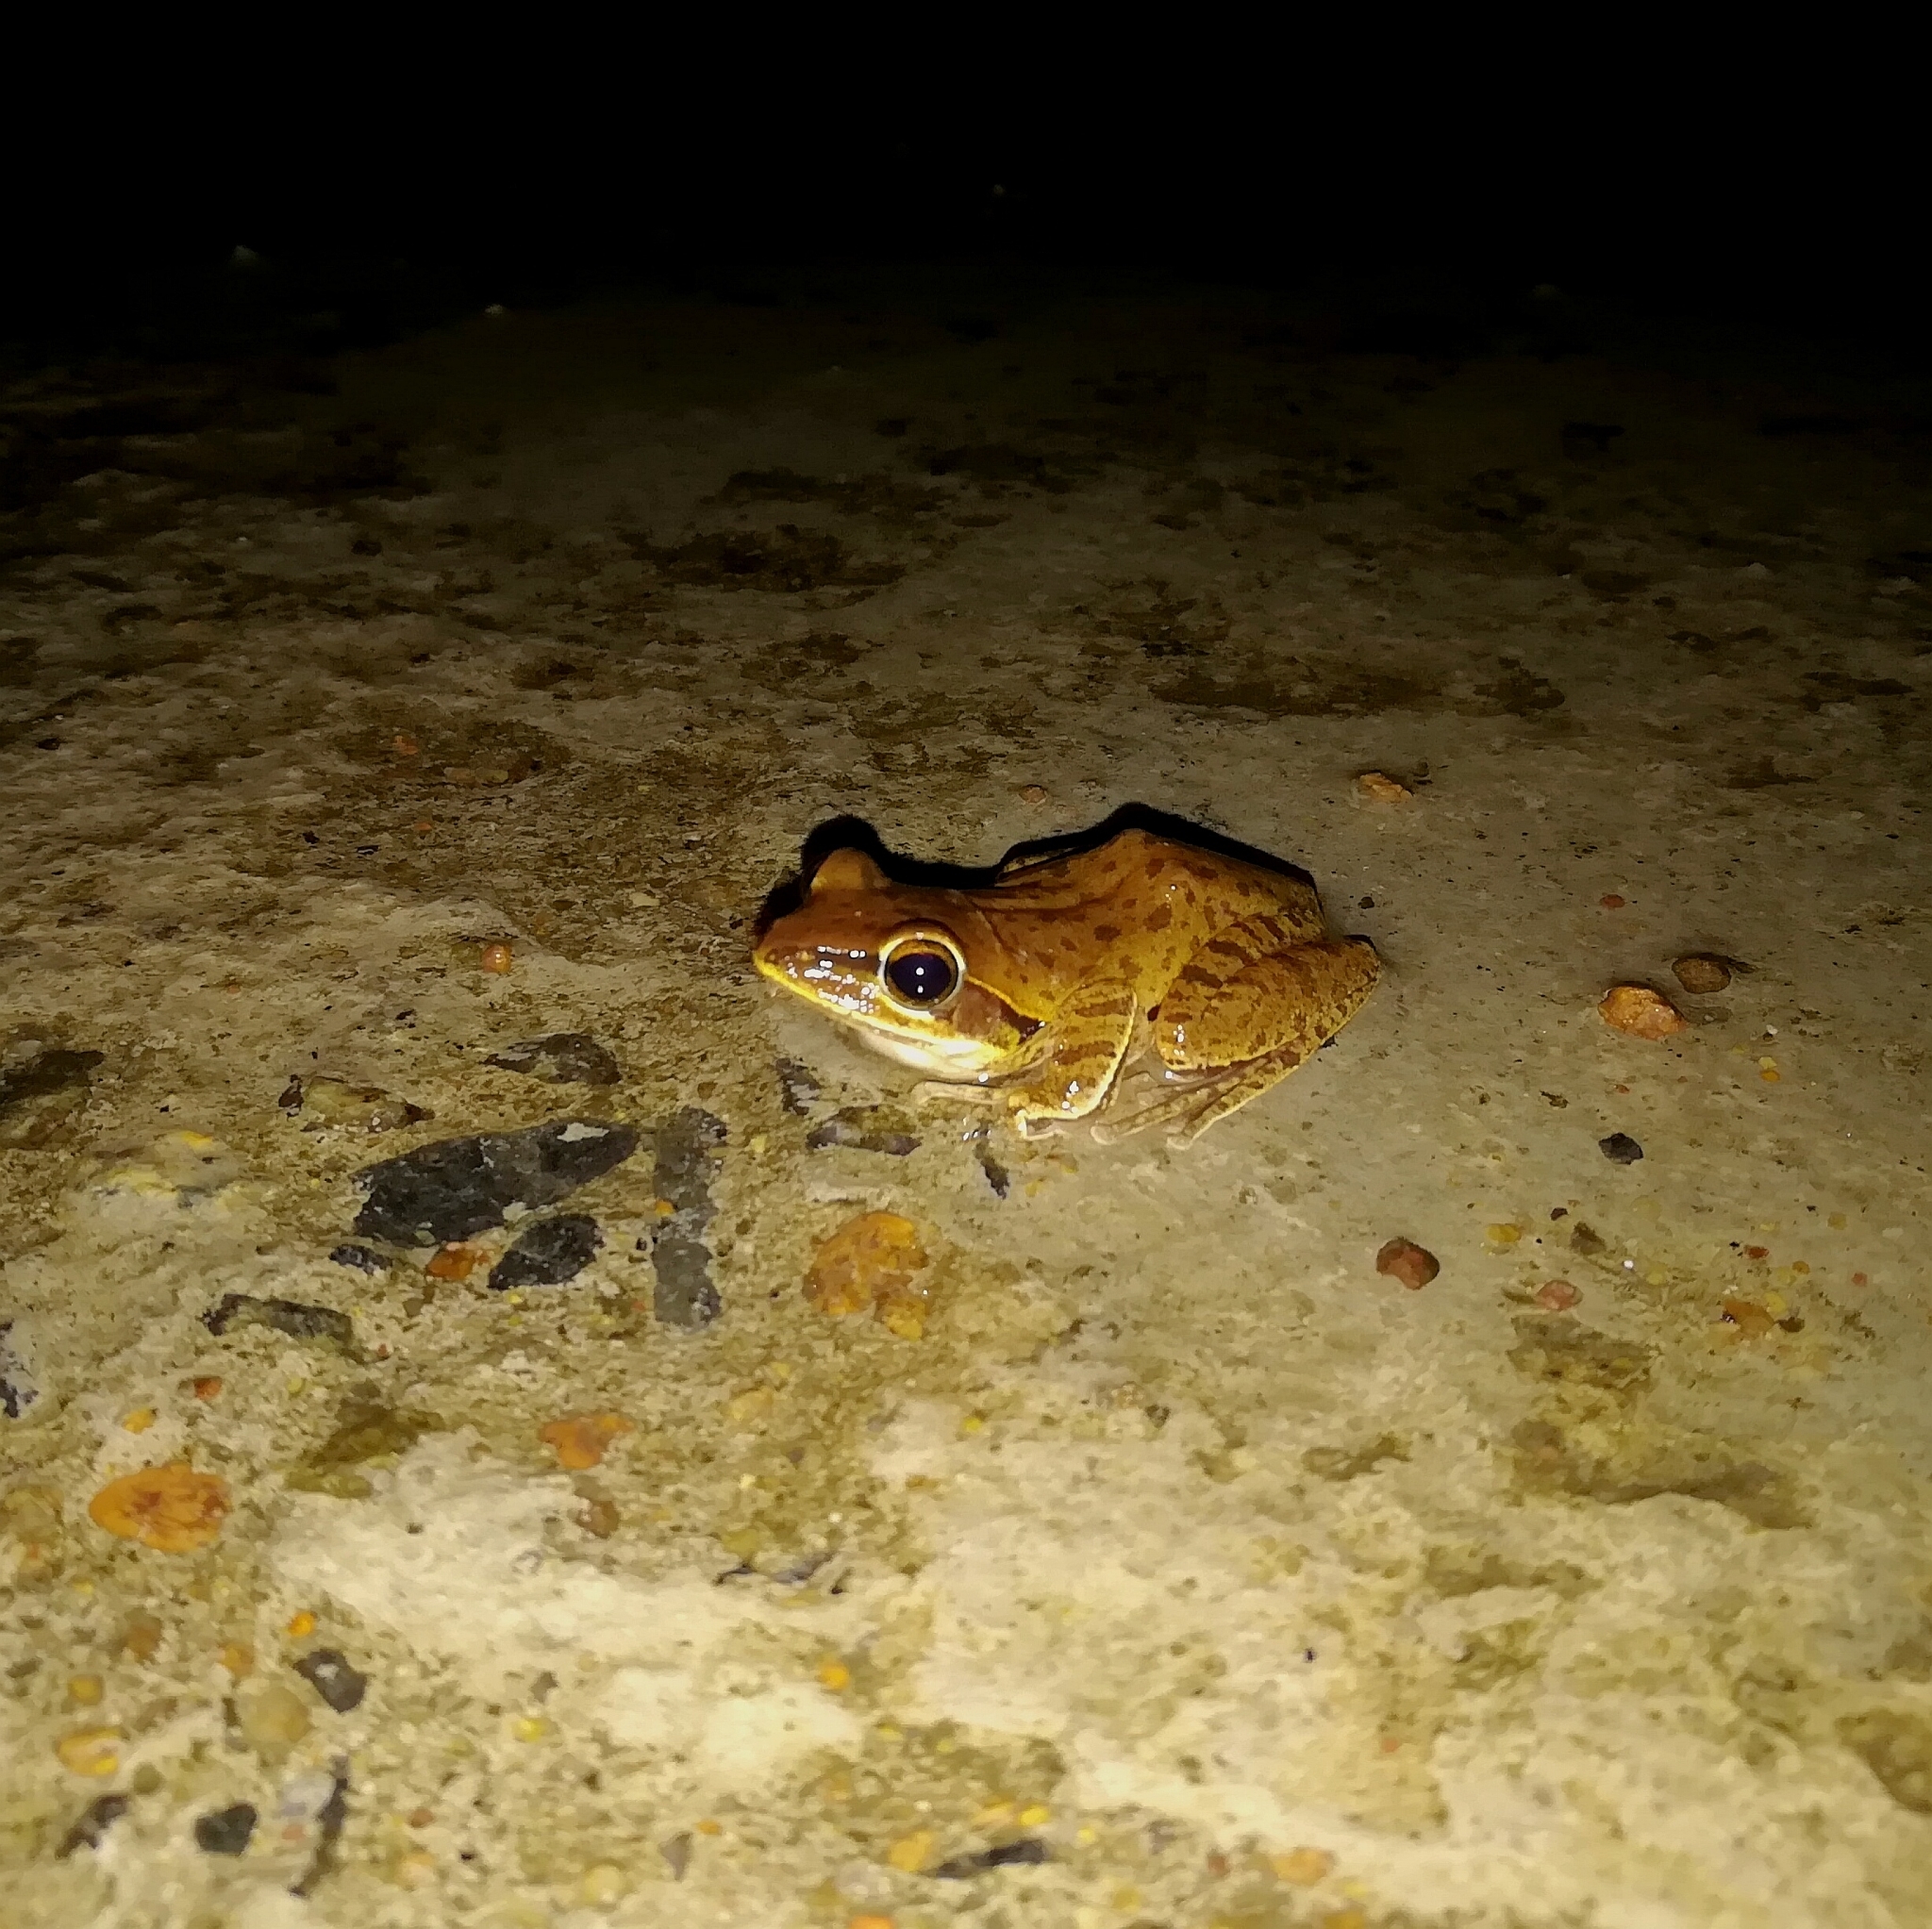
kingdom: Animalia
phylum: Chordata
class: Amphibia
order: Anura
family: Rhacophoridae
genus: Polypedates
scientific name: Polypedates maculatus
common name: Himalayan tree frog
